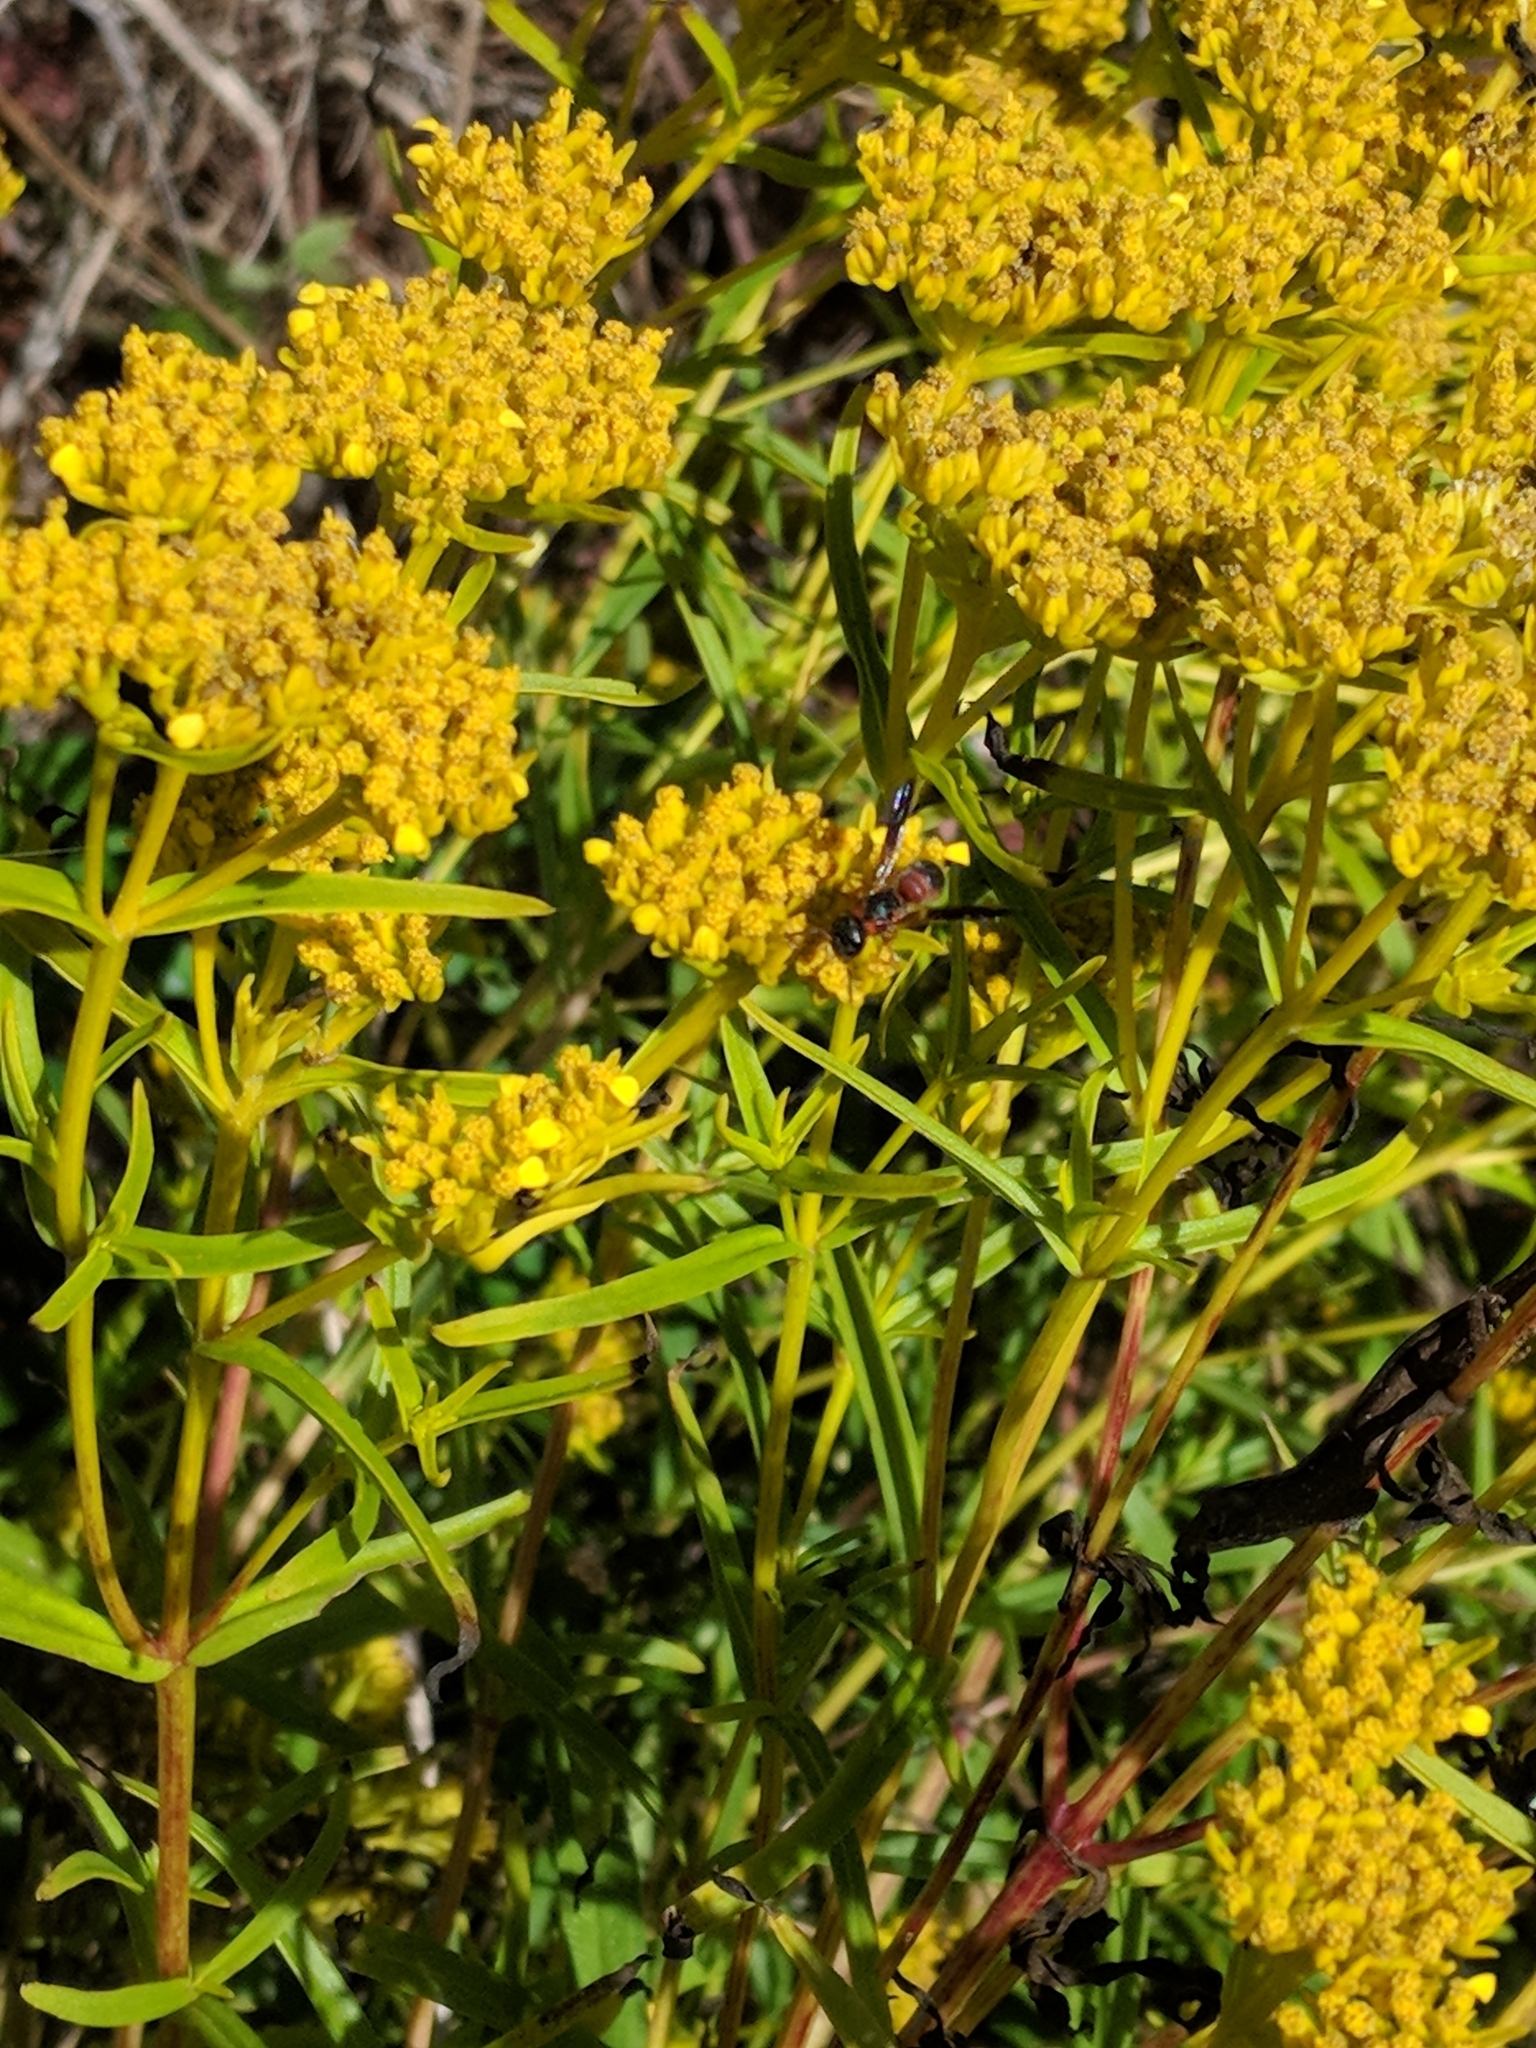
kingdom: Animalia
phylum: Arthropoda
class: Insecta
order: Hymenoptera
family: Eumenidae
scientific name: Eumenidae
